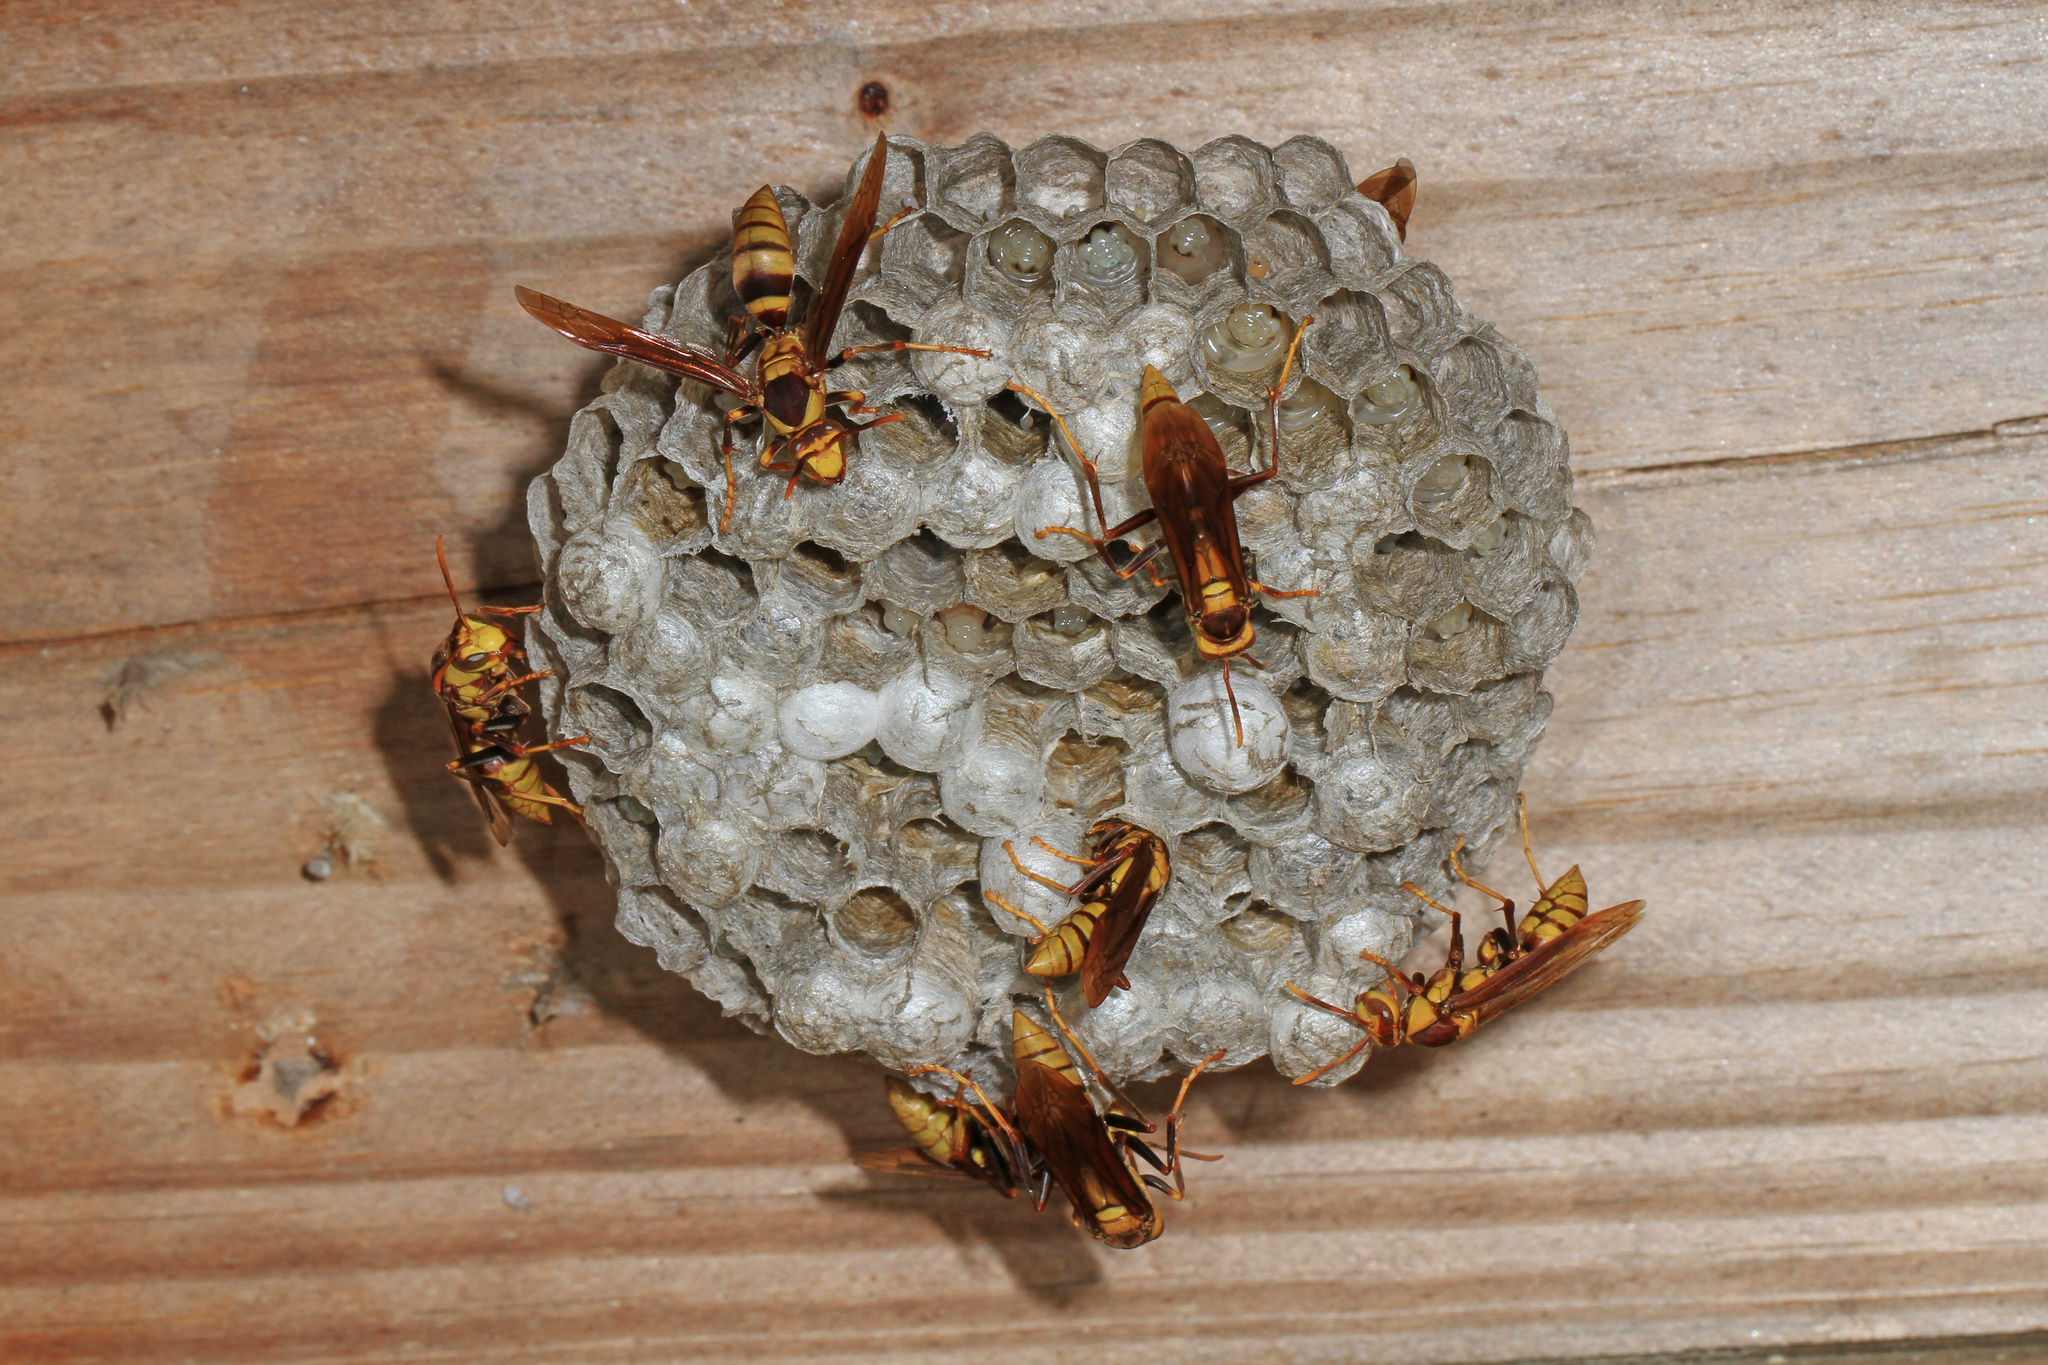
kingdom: Animalia
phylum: Arthropoda
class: Insecta
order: Hymenoptera
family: Eumenidae
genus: Polistes
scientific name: Polistes major
